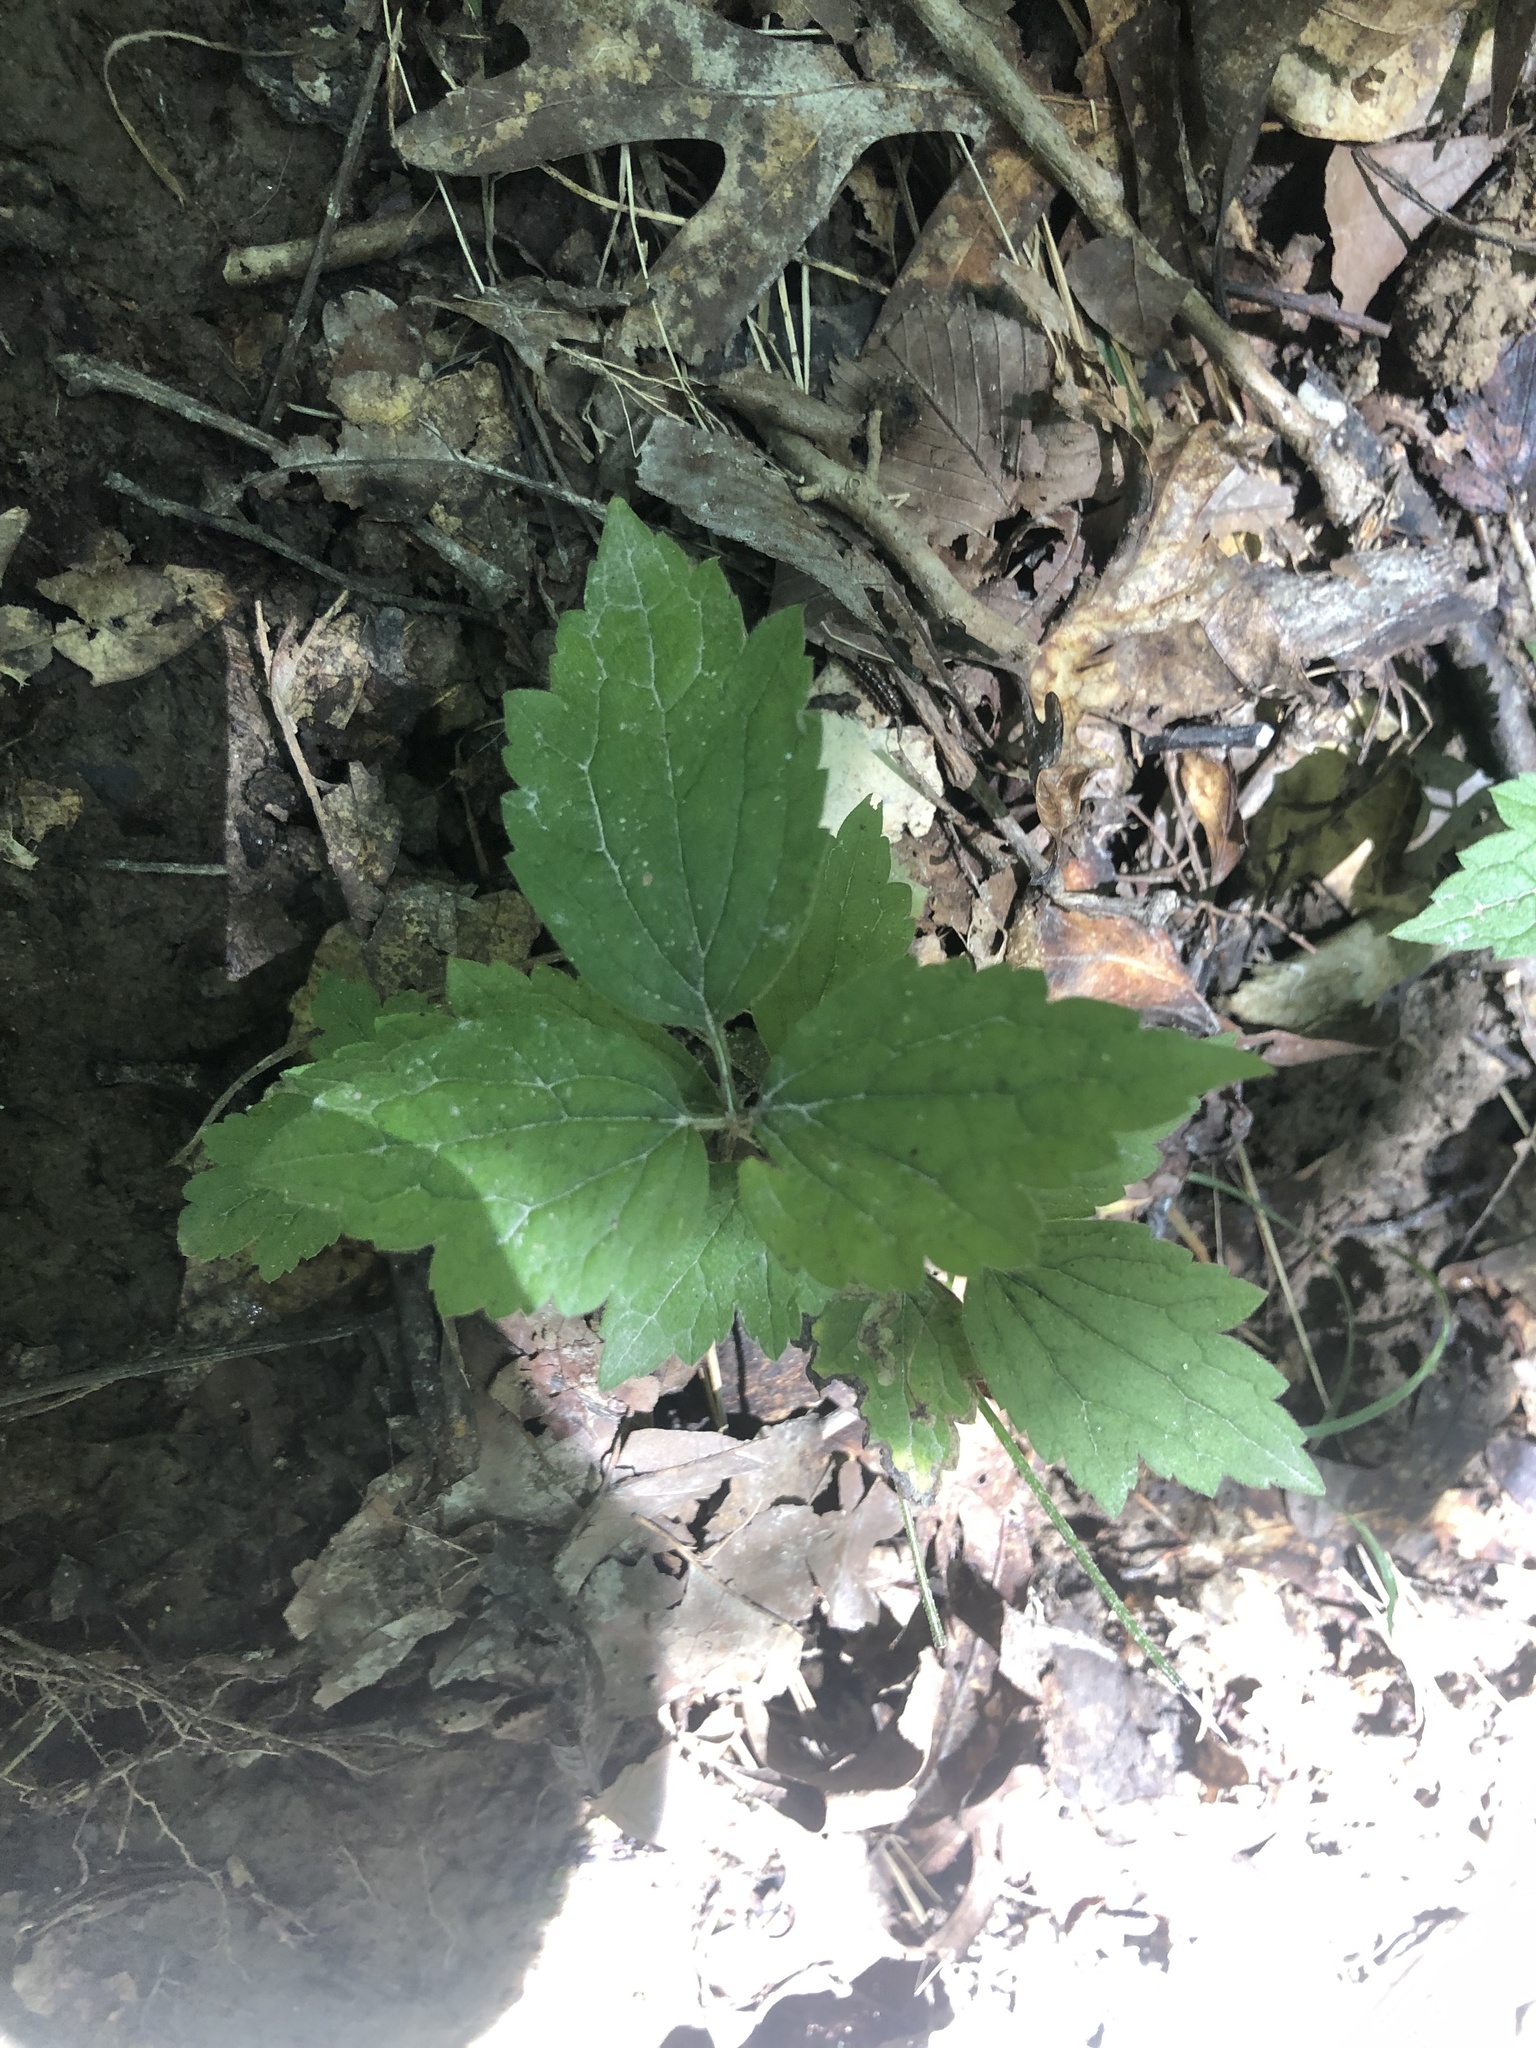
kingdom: Plantae
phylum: Tracheophyta
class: Magnoliopsida
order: Ranunculales
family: Ranunculaceae
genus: Clematis
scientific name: Clematis catesbyana
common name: Virgin's bower
